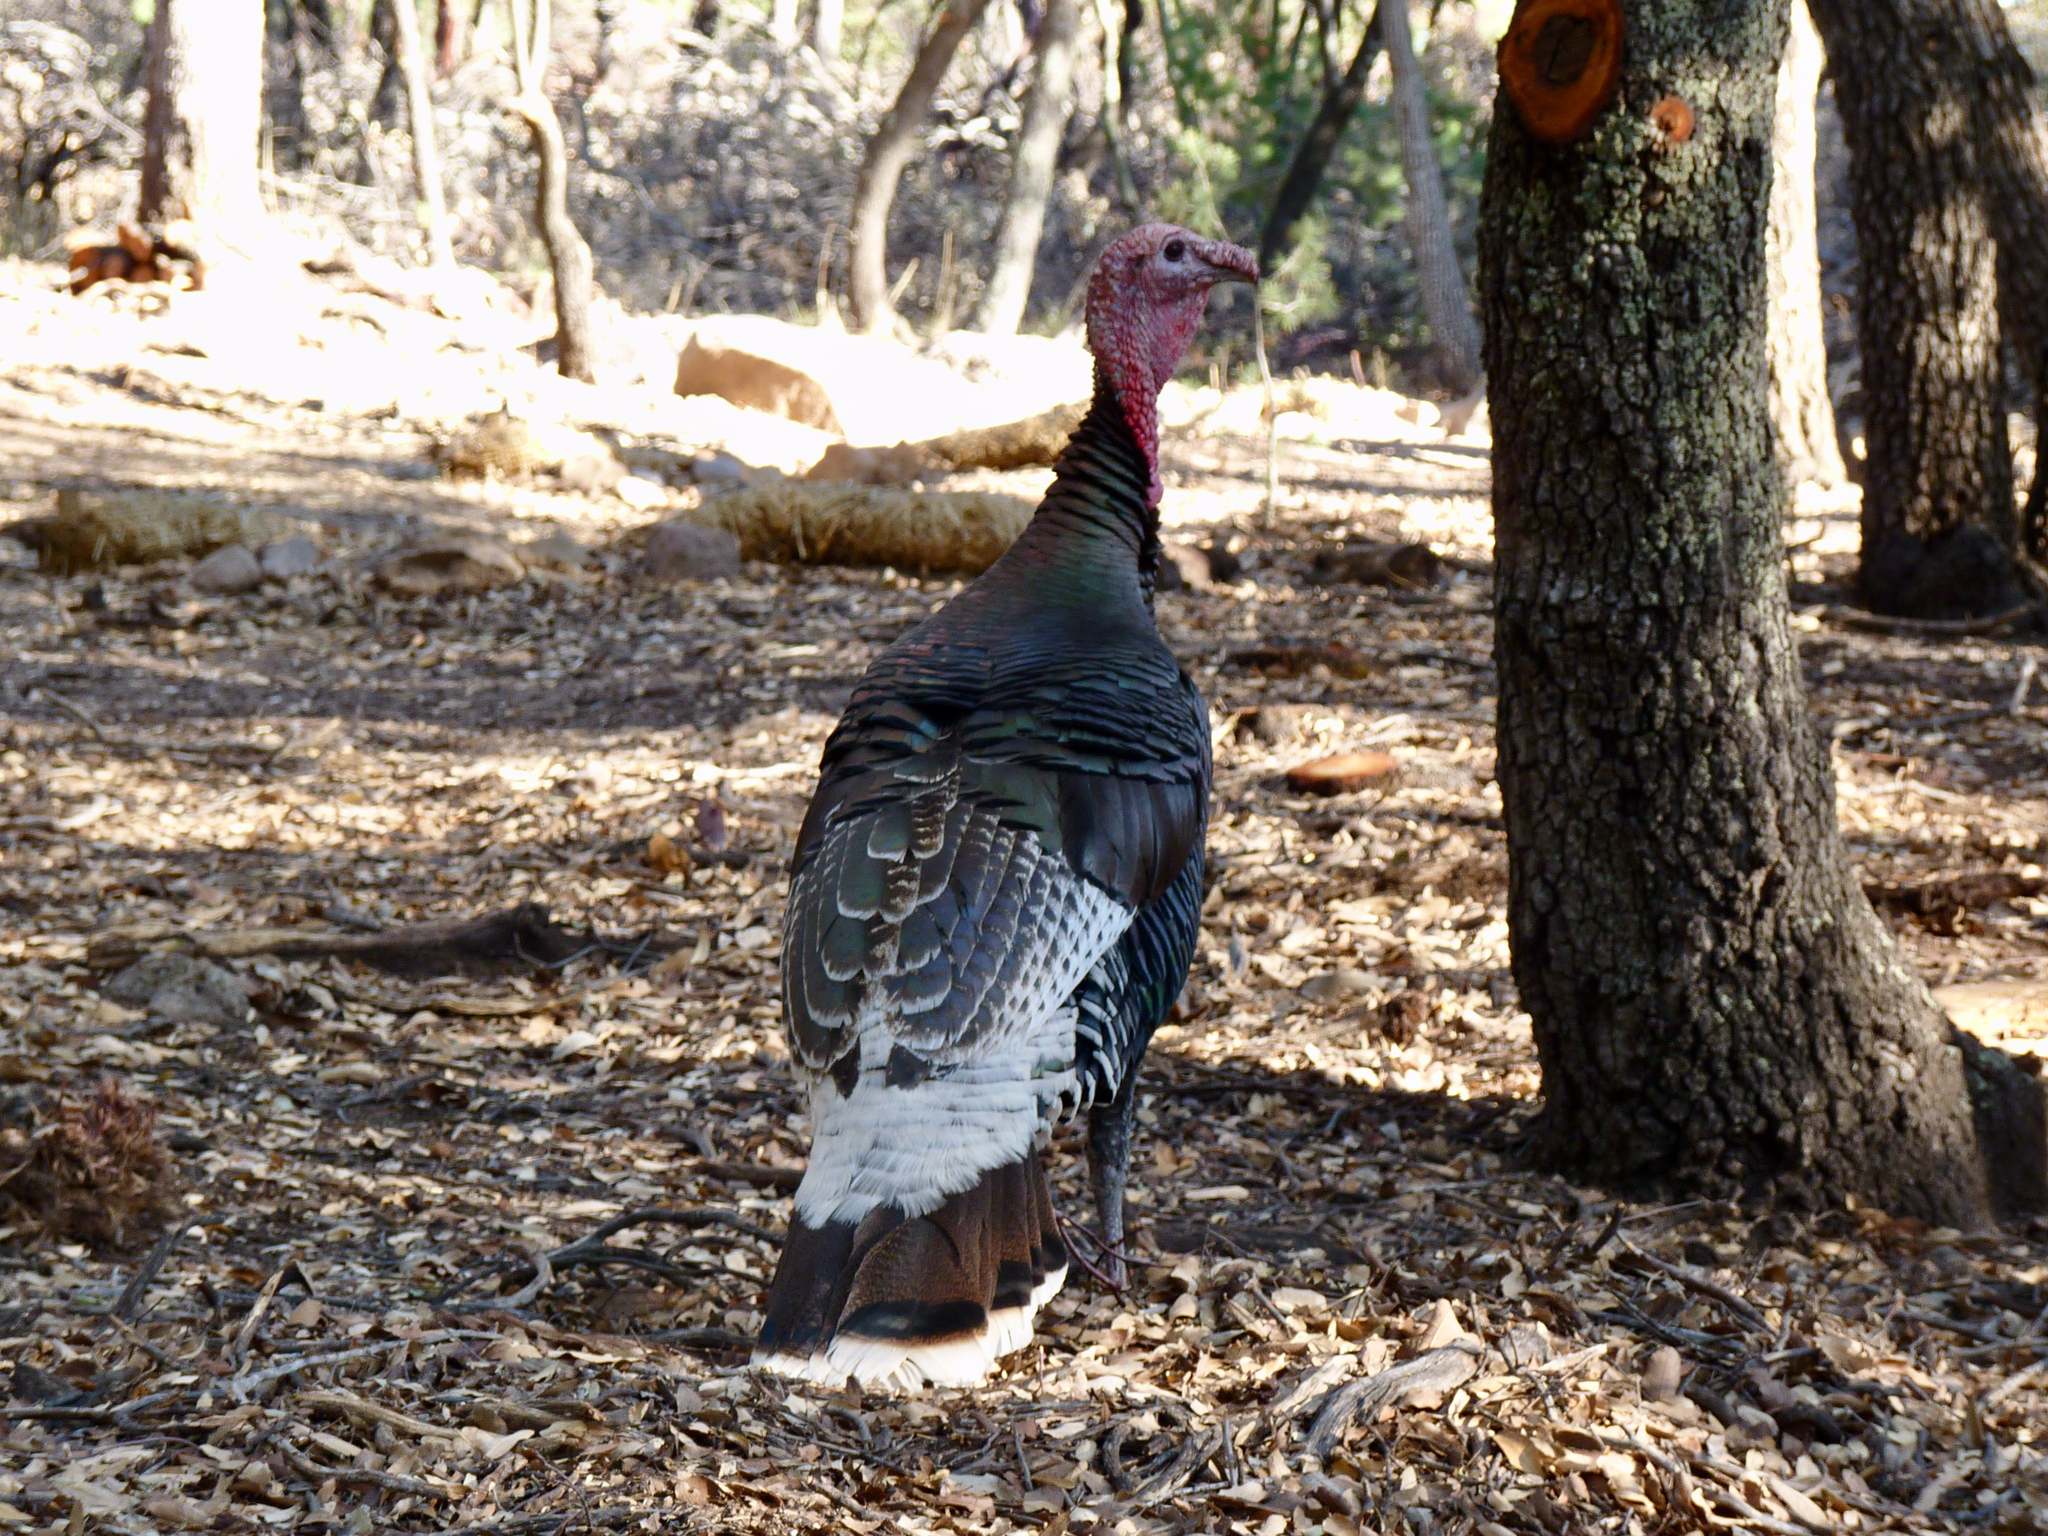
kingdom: Animalia
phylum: Chordata
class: Aves
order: Galliformes
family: Phasianidae
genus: Meleagris
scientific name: Meleagris gallopavo
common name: Wild turkey
